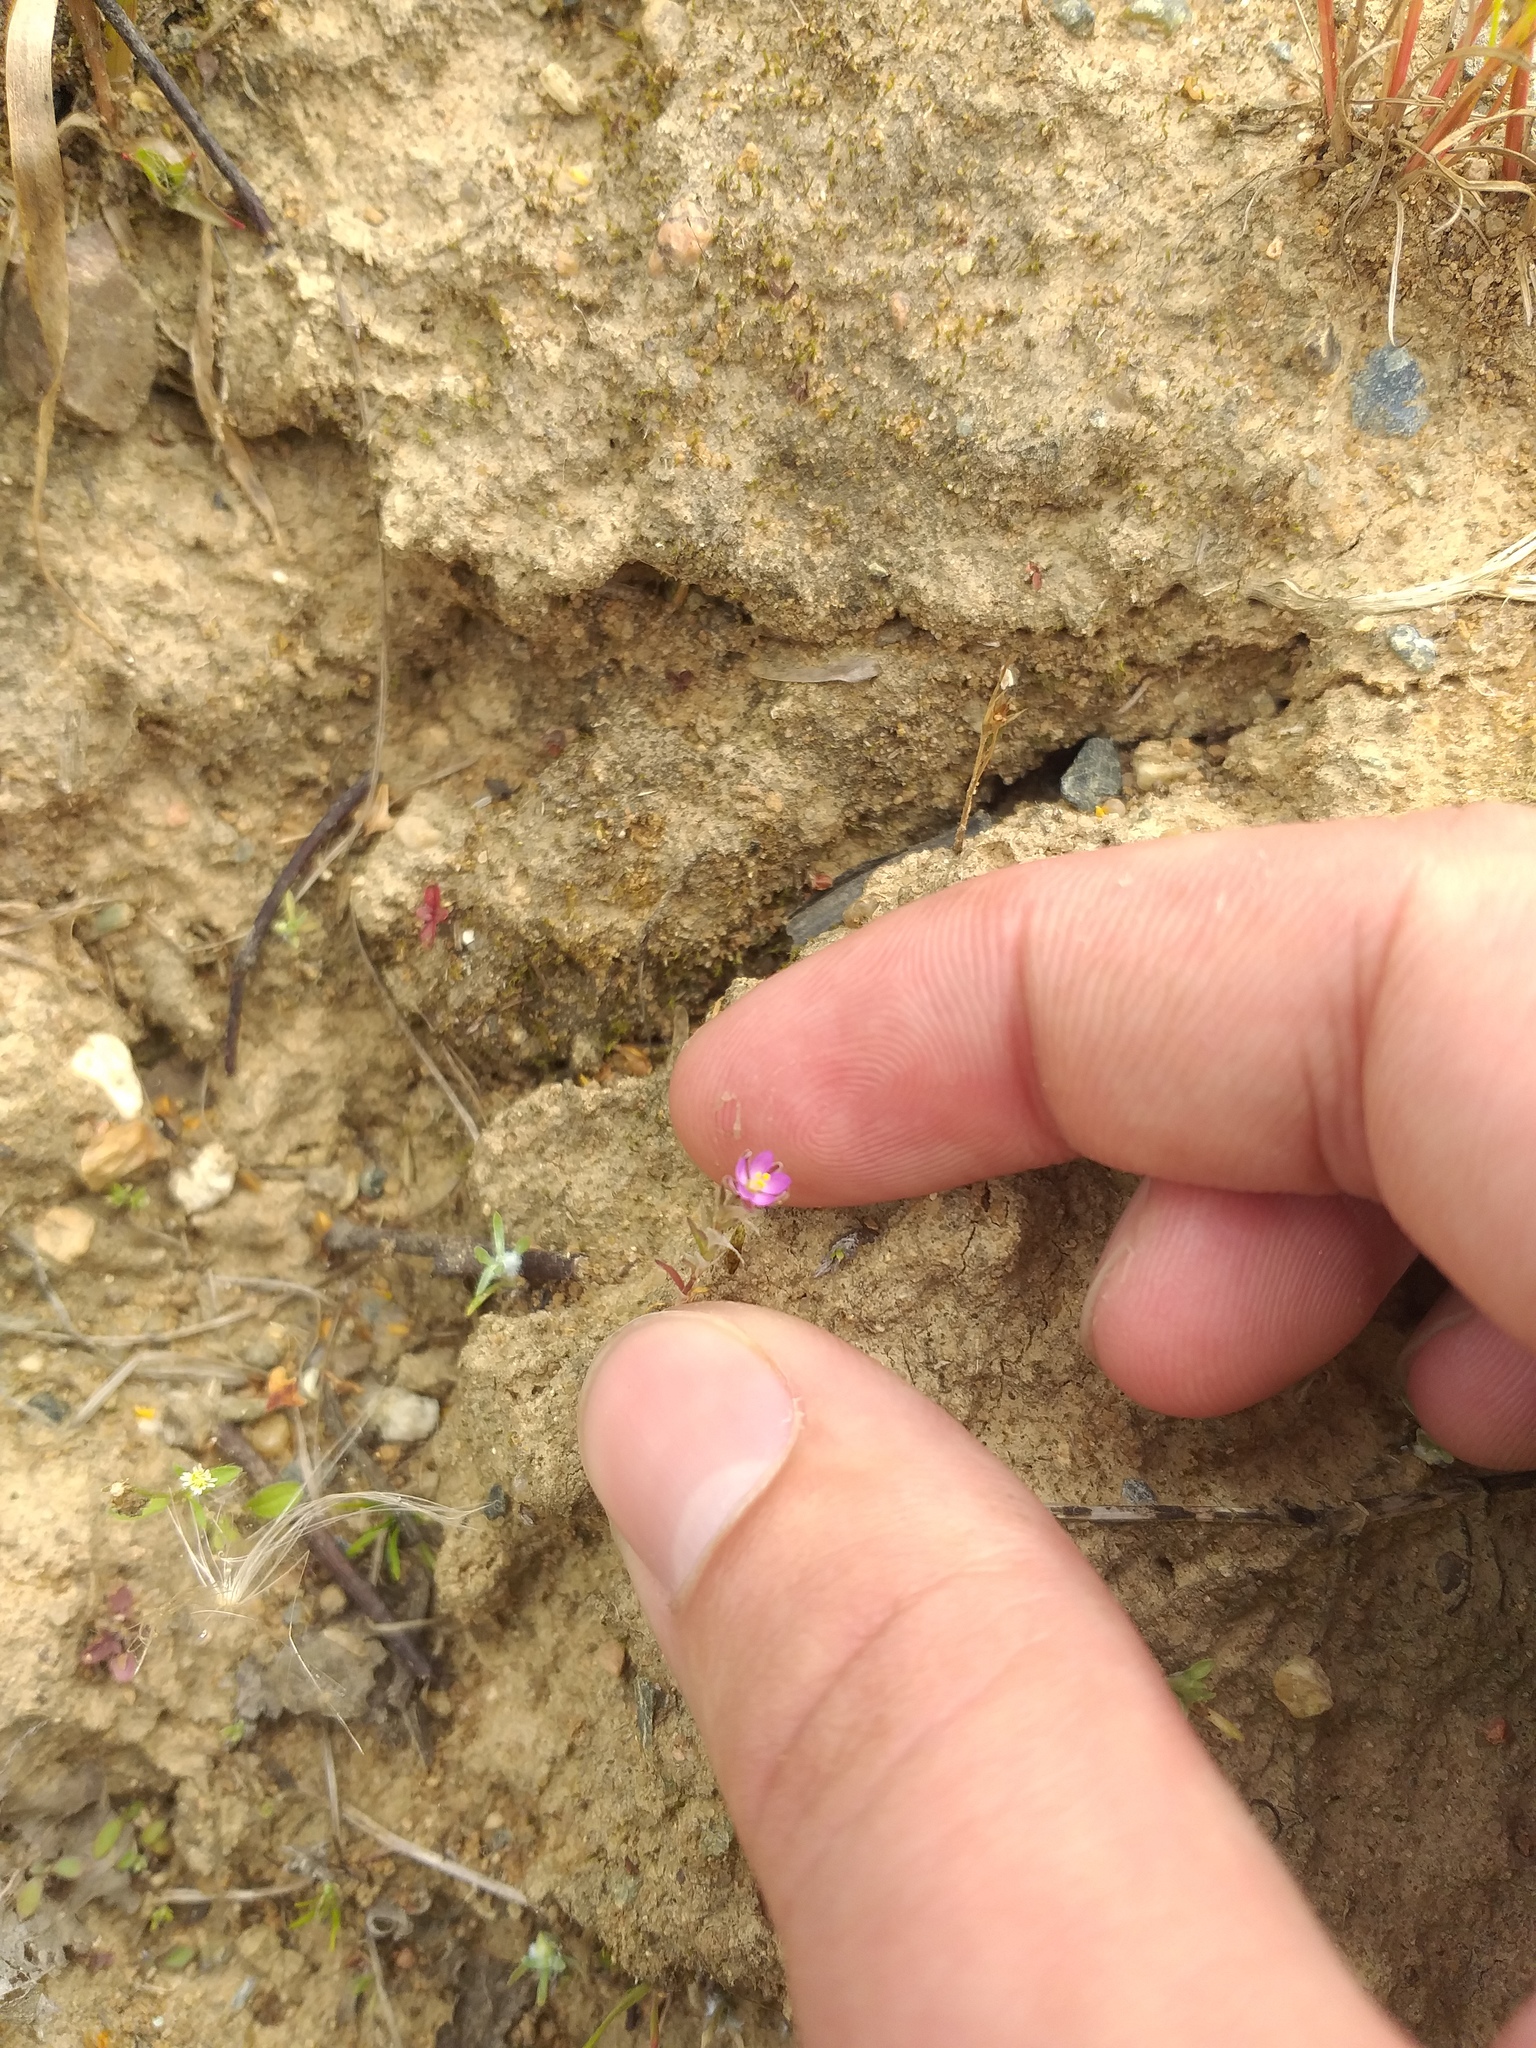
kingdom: Plantae
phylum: Tracheophyta
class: Magnoliopsida
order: Caryophyllales
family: Caryophyllaceae
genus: Spergularia
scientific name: Spergularia rubra
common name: Red sand-spurrey
